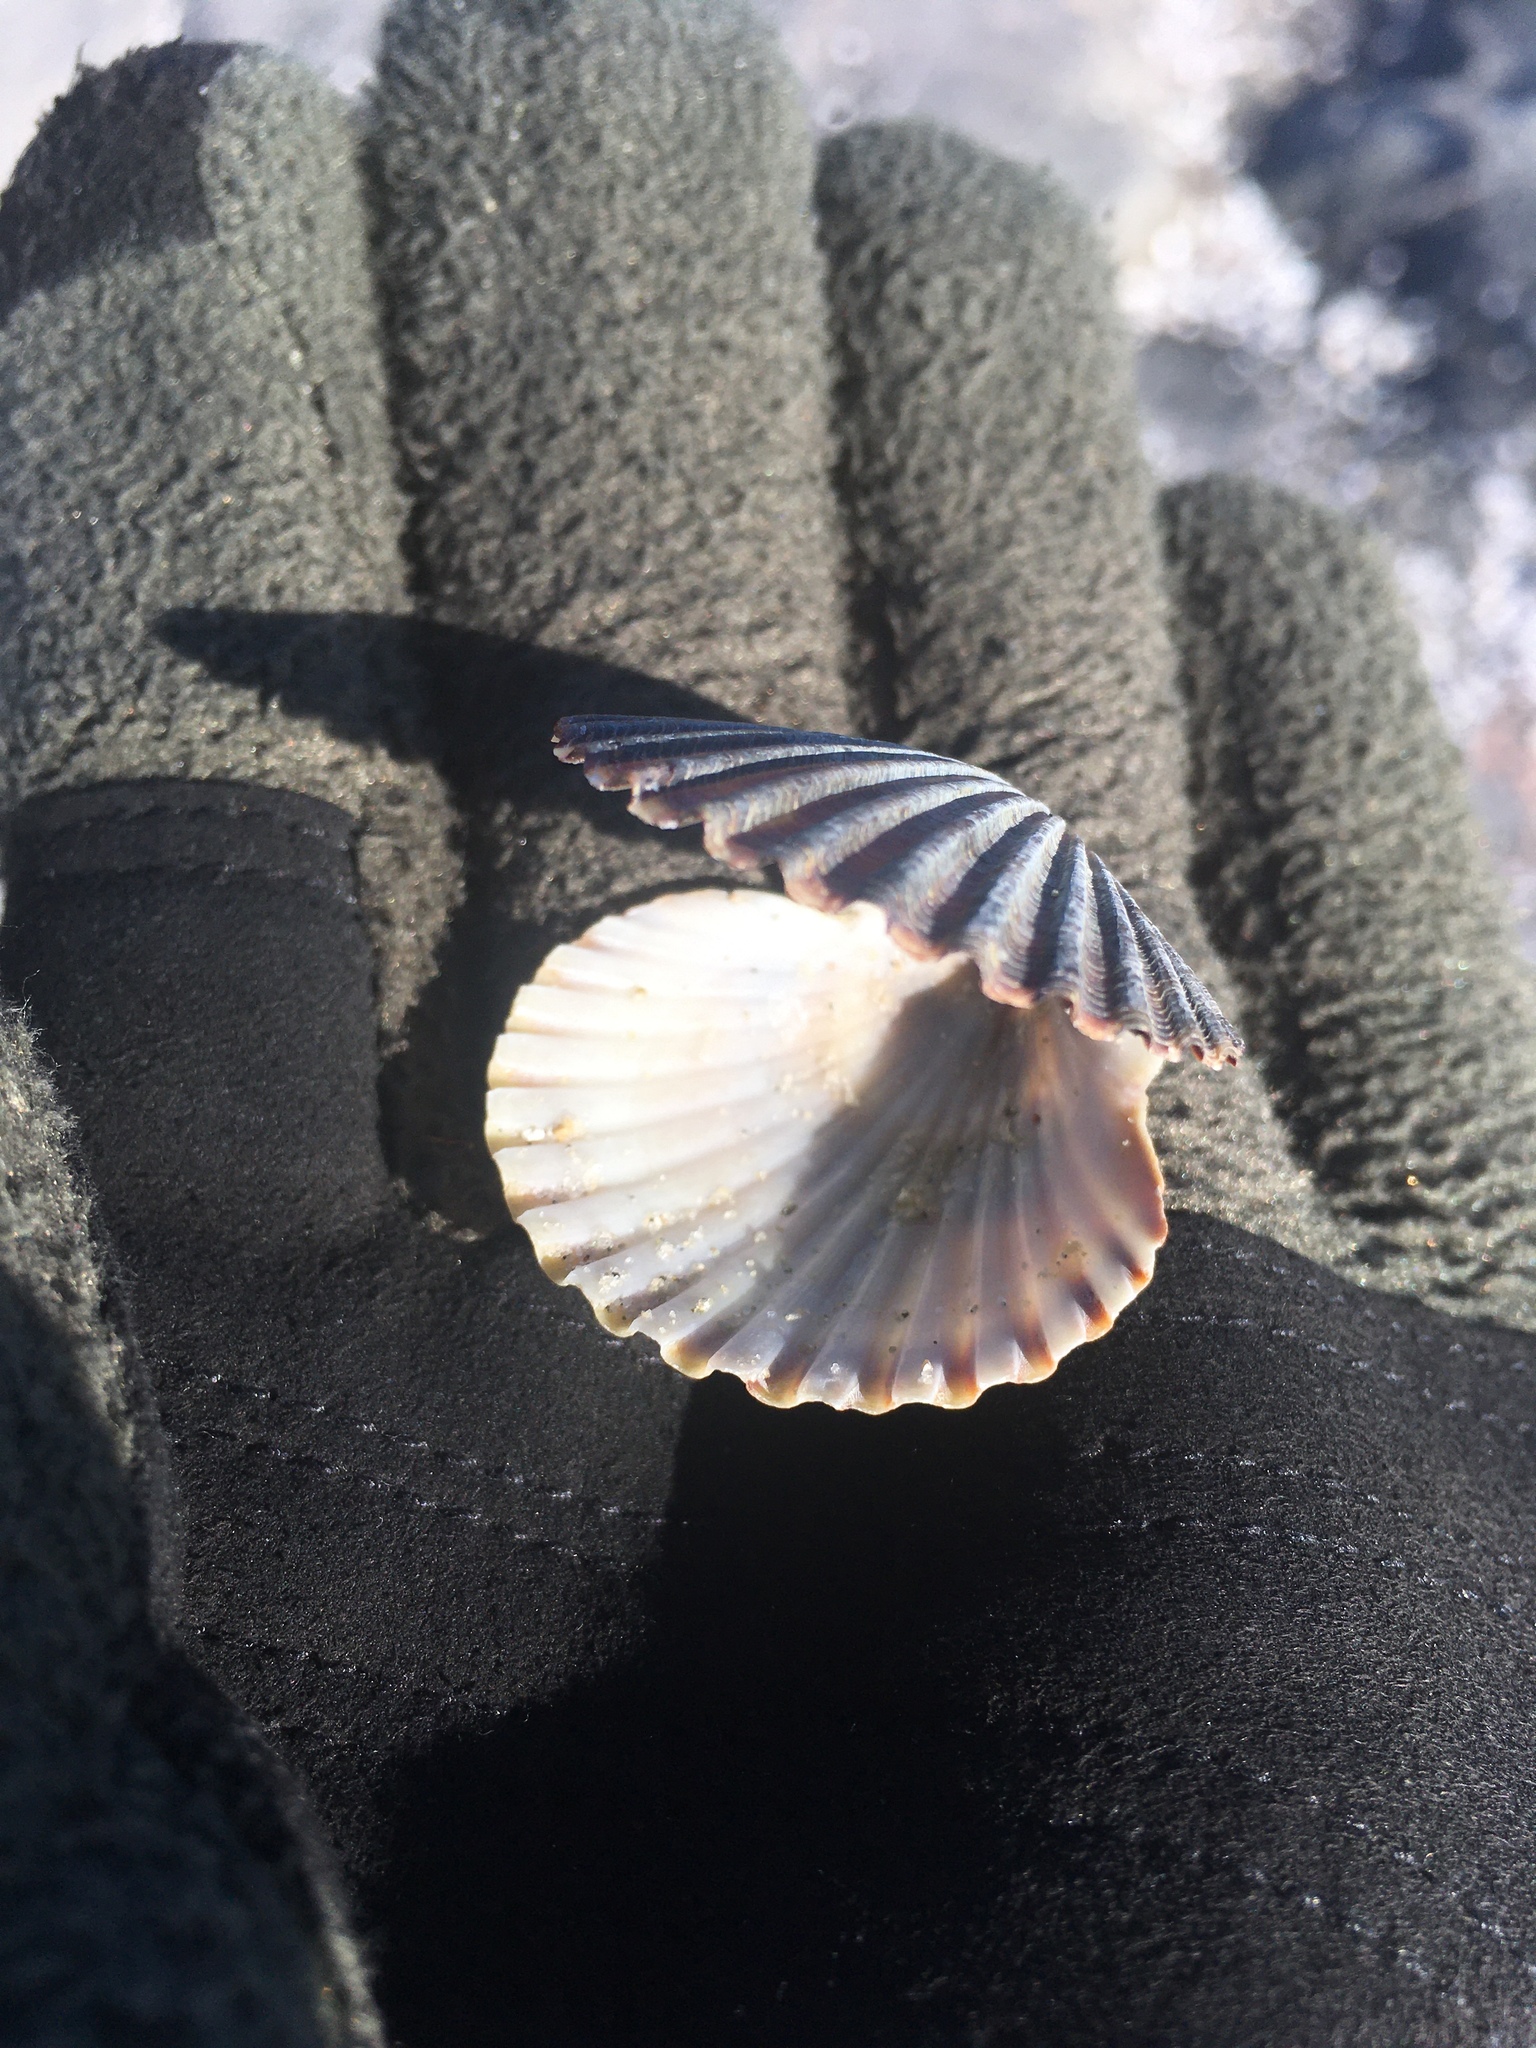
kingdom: Animalia
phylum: Mollusca
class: Bivalvia
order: Pectinida
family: Pectinidae
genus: Argopecten
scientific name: Argopecten irradians
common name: Atlantic bay scallop
